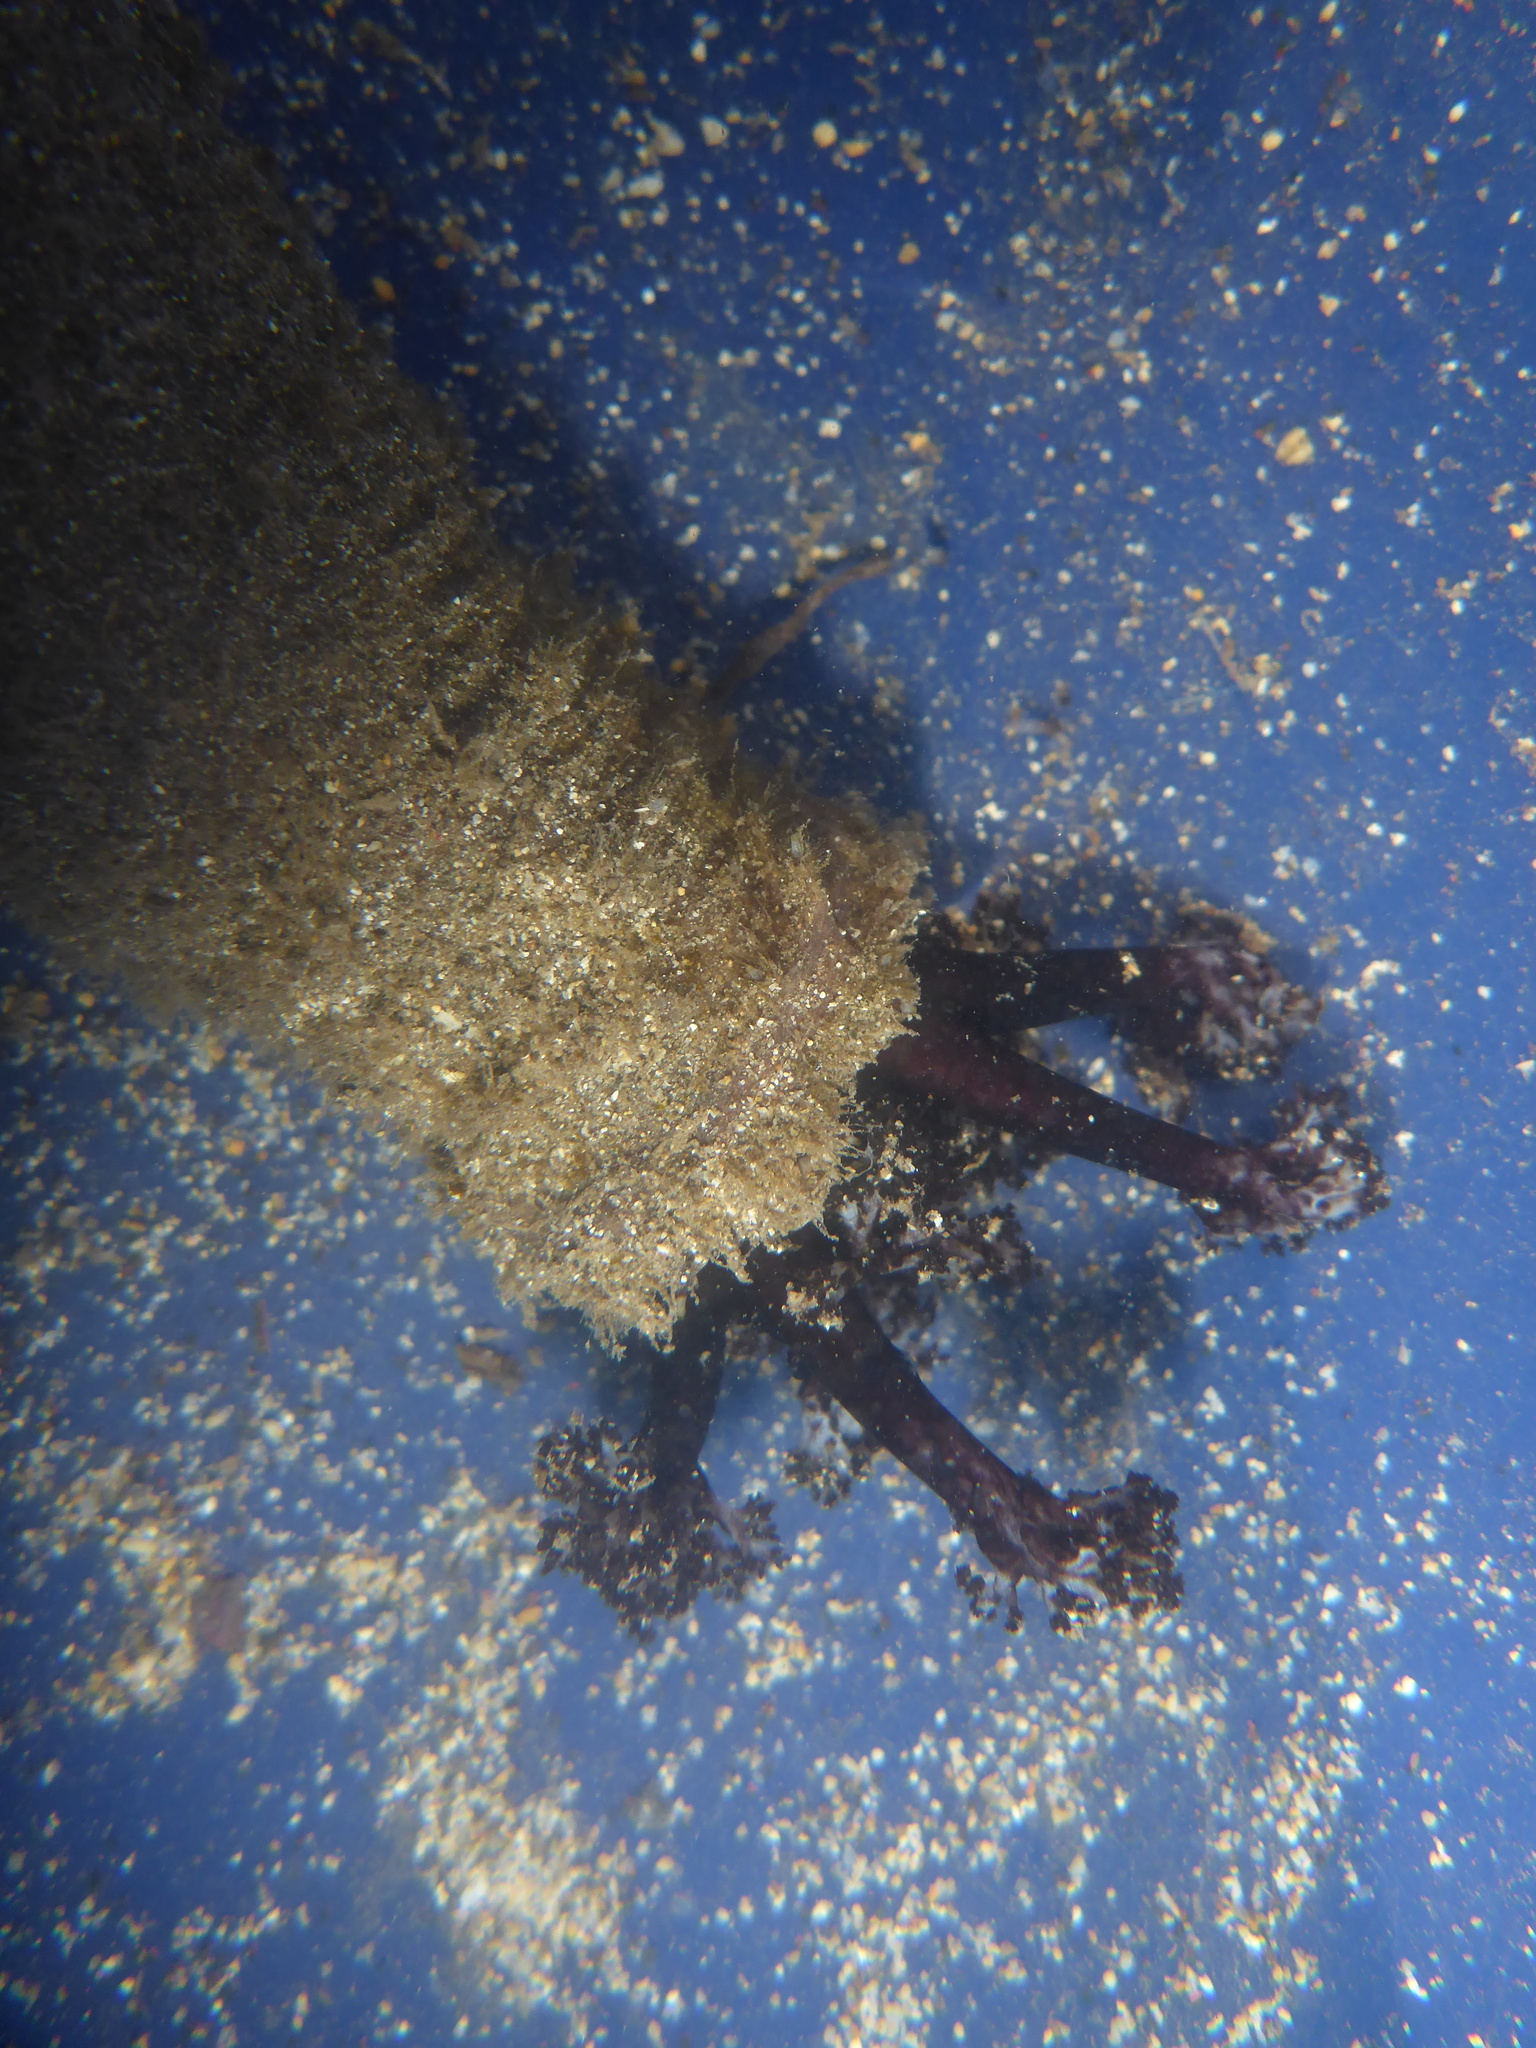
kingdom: Animalia
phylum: Echinodermata
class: Holothuroidea
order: Holothuriida
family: Holothuriidae
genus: Holothuria
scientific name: Holothuria cinerascens
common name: Ashy sea cucumber
